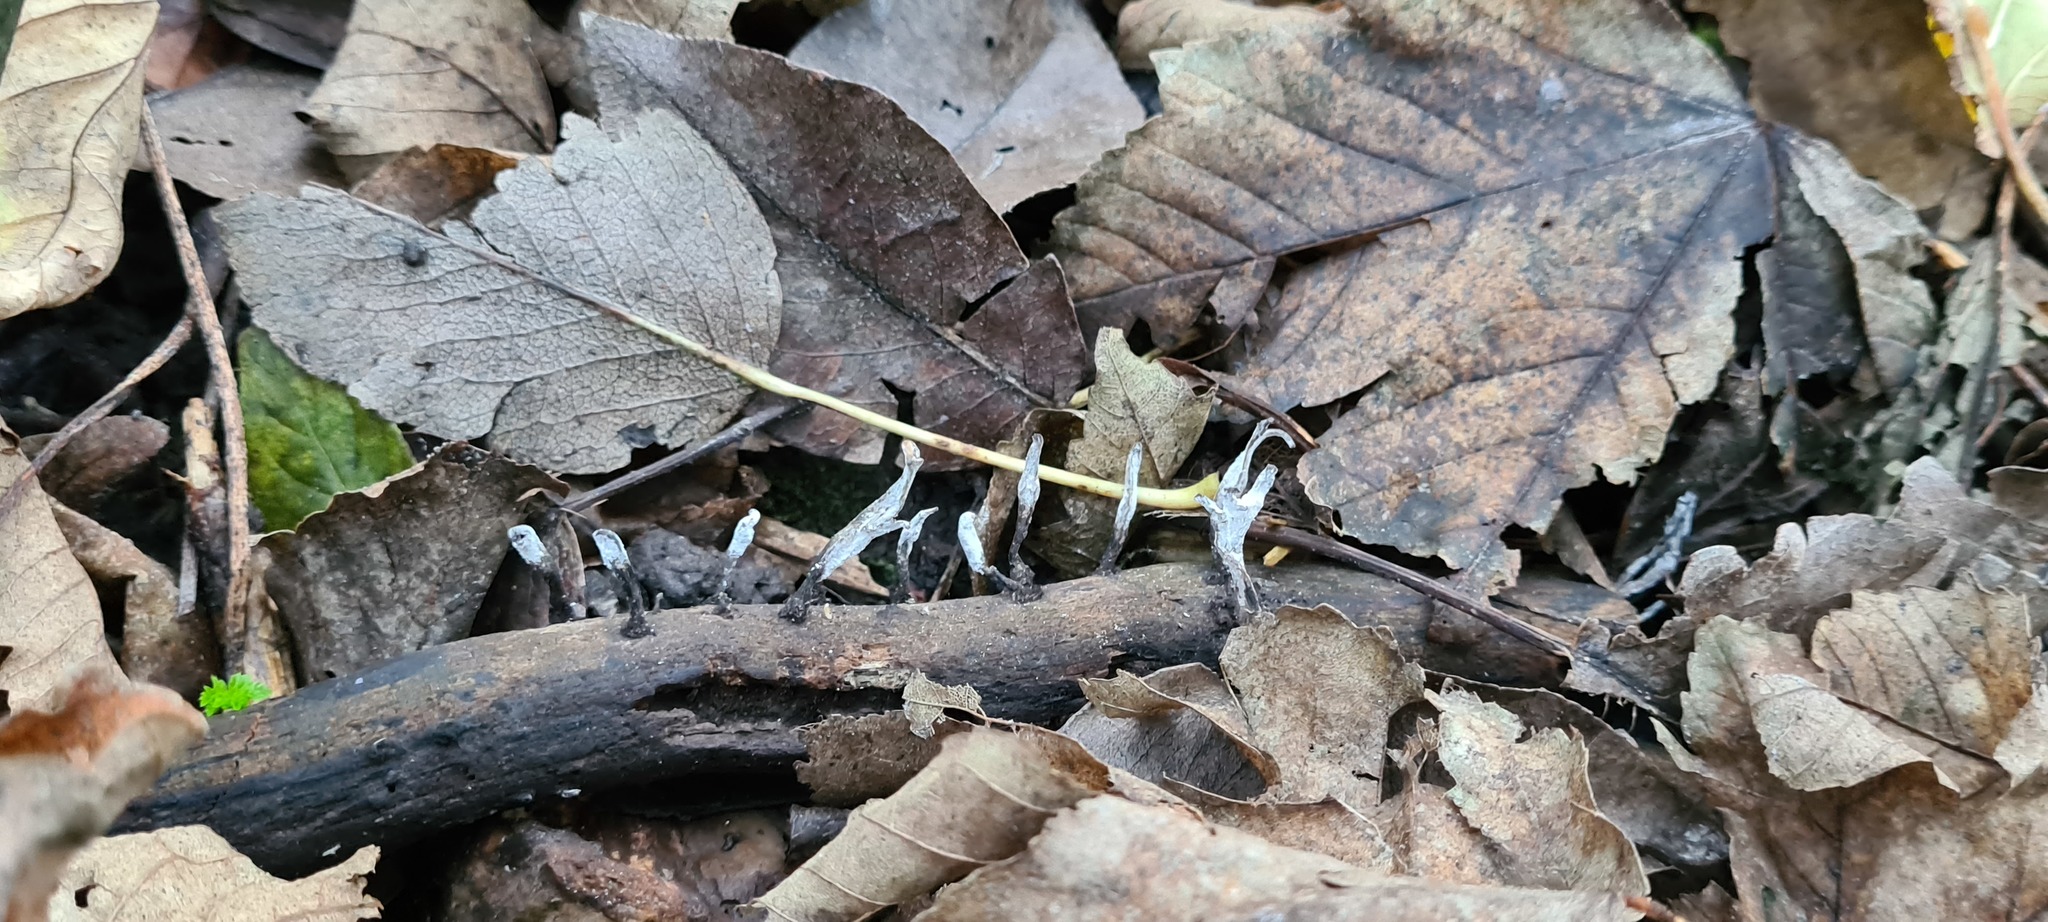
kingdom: Fungi
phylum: Ascomycota
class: Sordariomycetes
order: Xylariales
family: Xylariaceae
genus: Xylaria
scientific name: Xylaria hypoxylon
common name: Candle-snuff fungus
